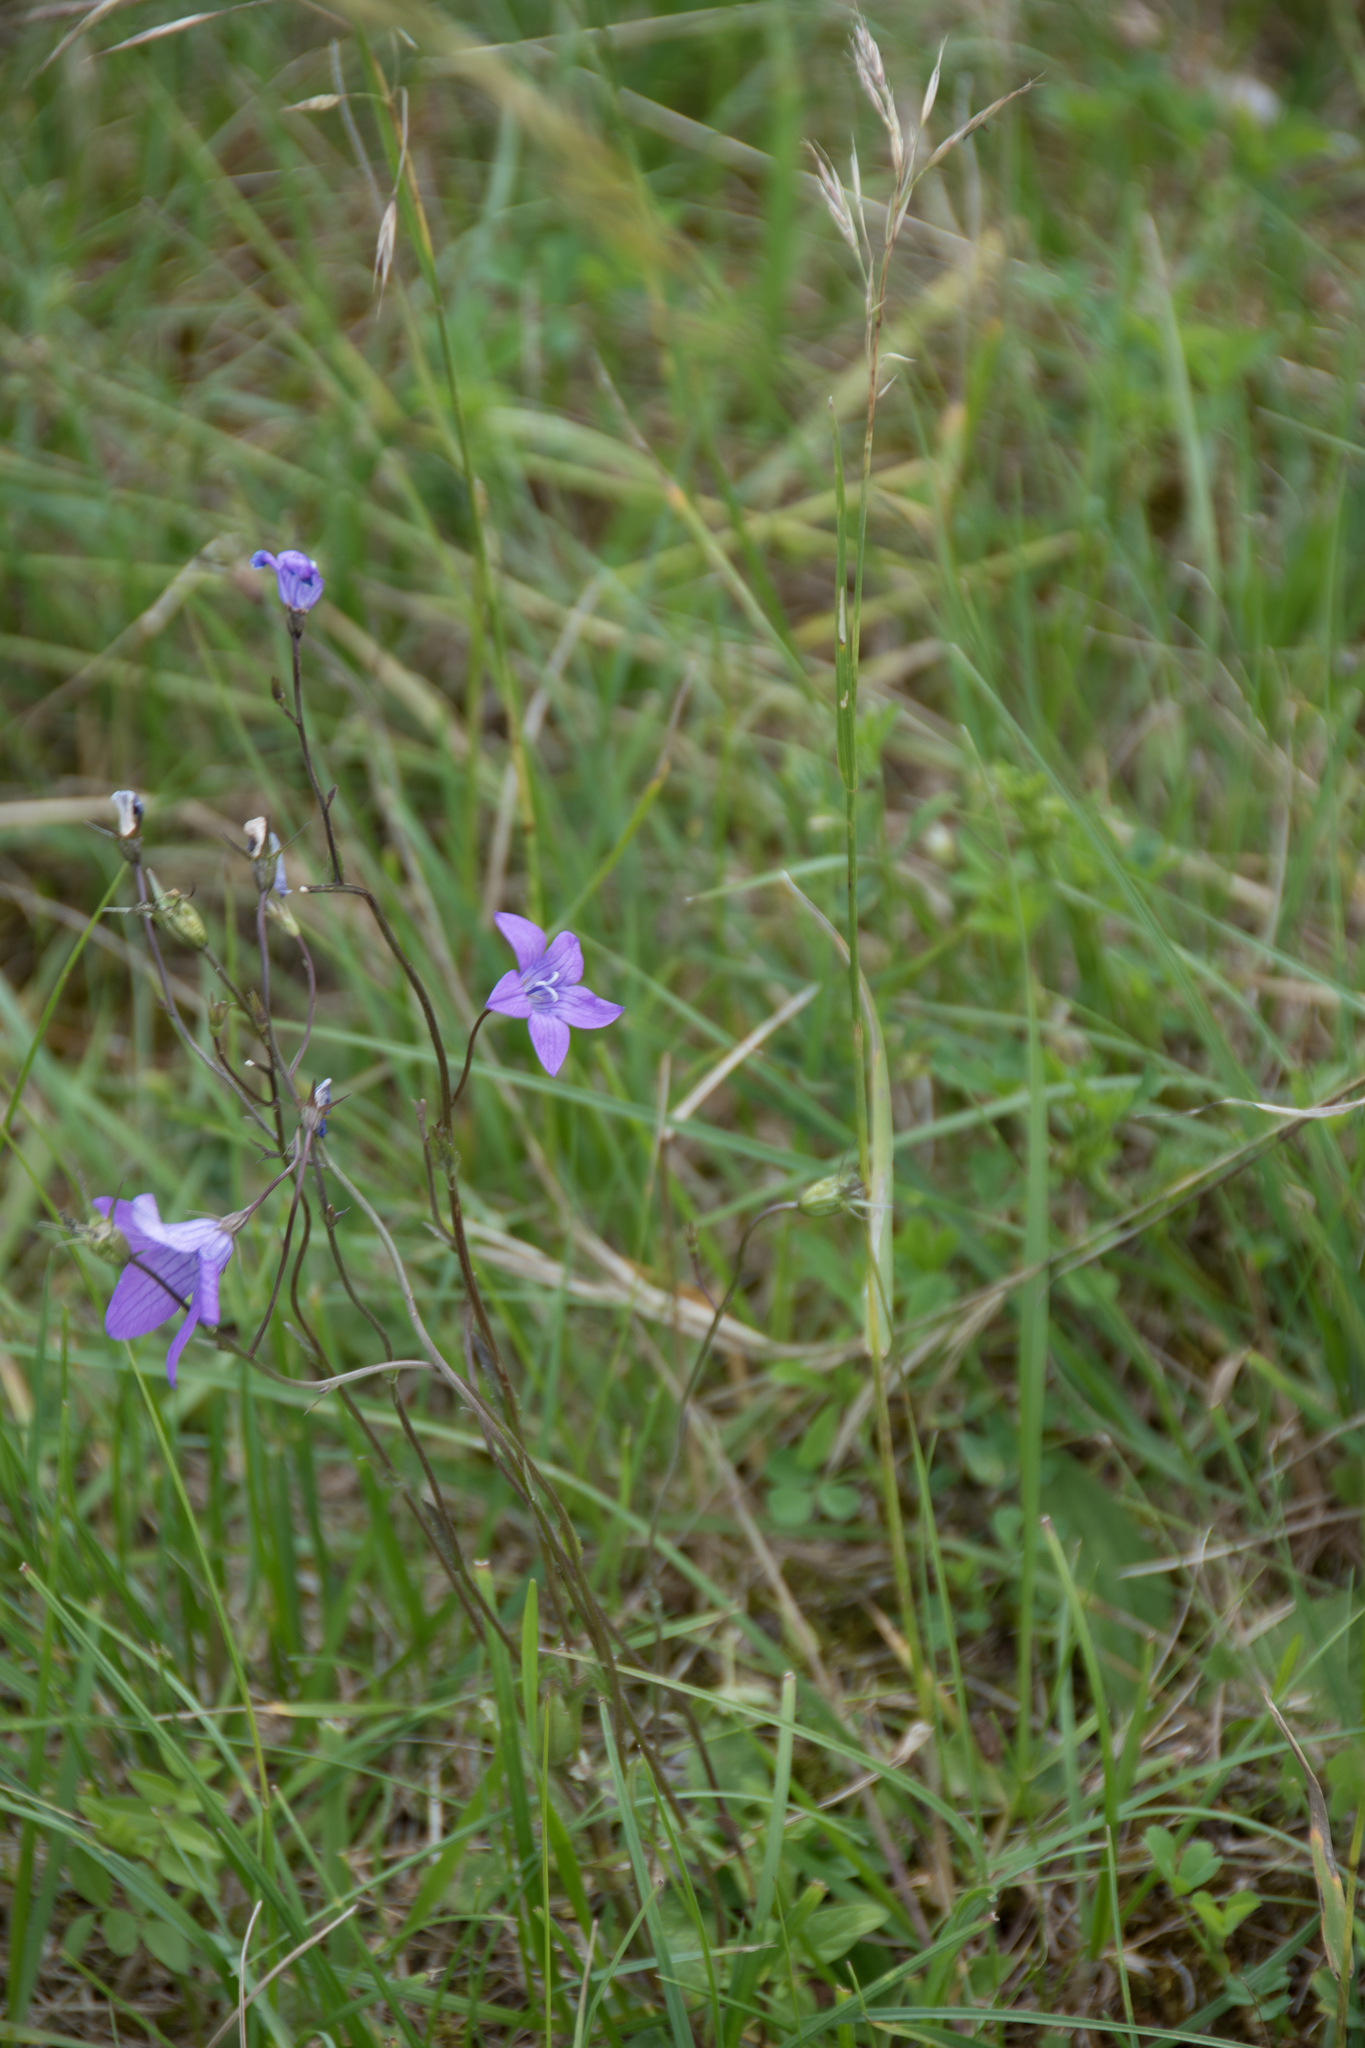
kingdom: Plantae
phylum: Tracheophyta
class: Magnoliopsida
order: Asterales
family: Campanulaceae
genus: Campanula
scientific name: Campanula patula
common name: Spreading bellflower
